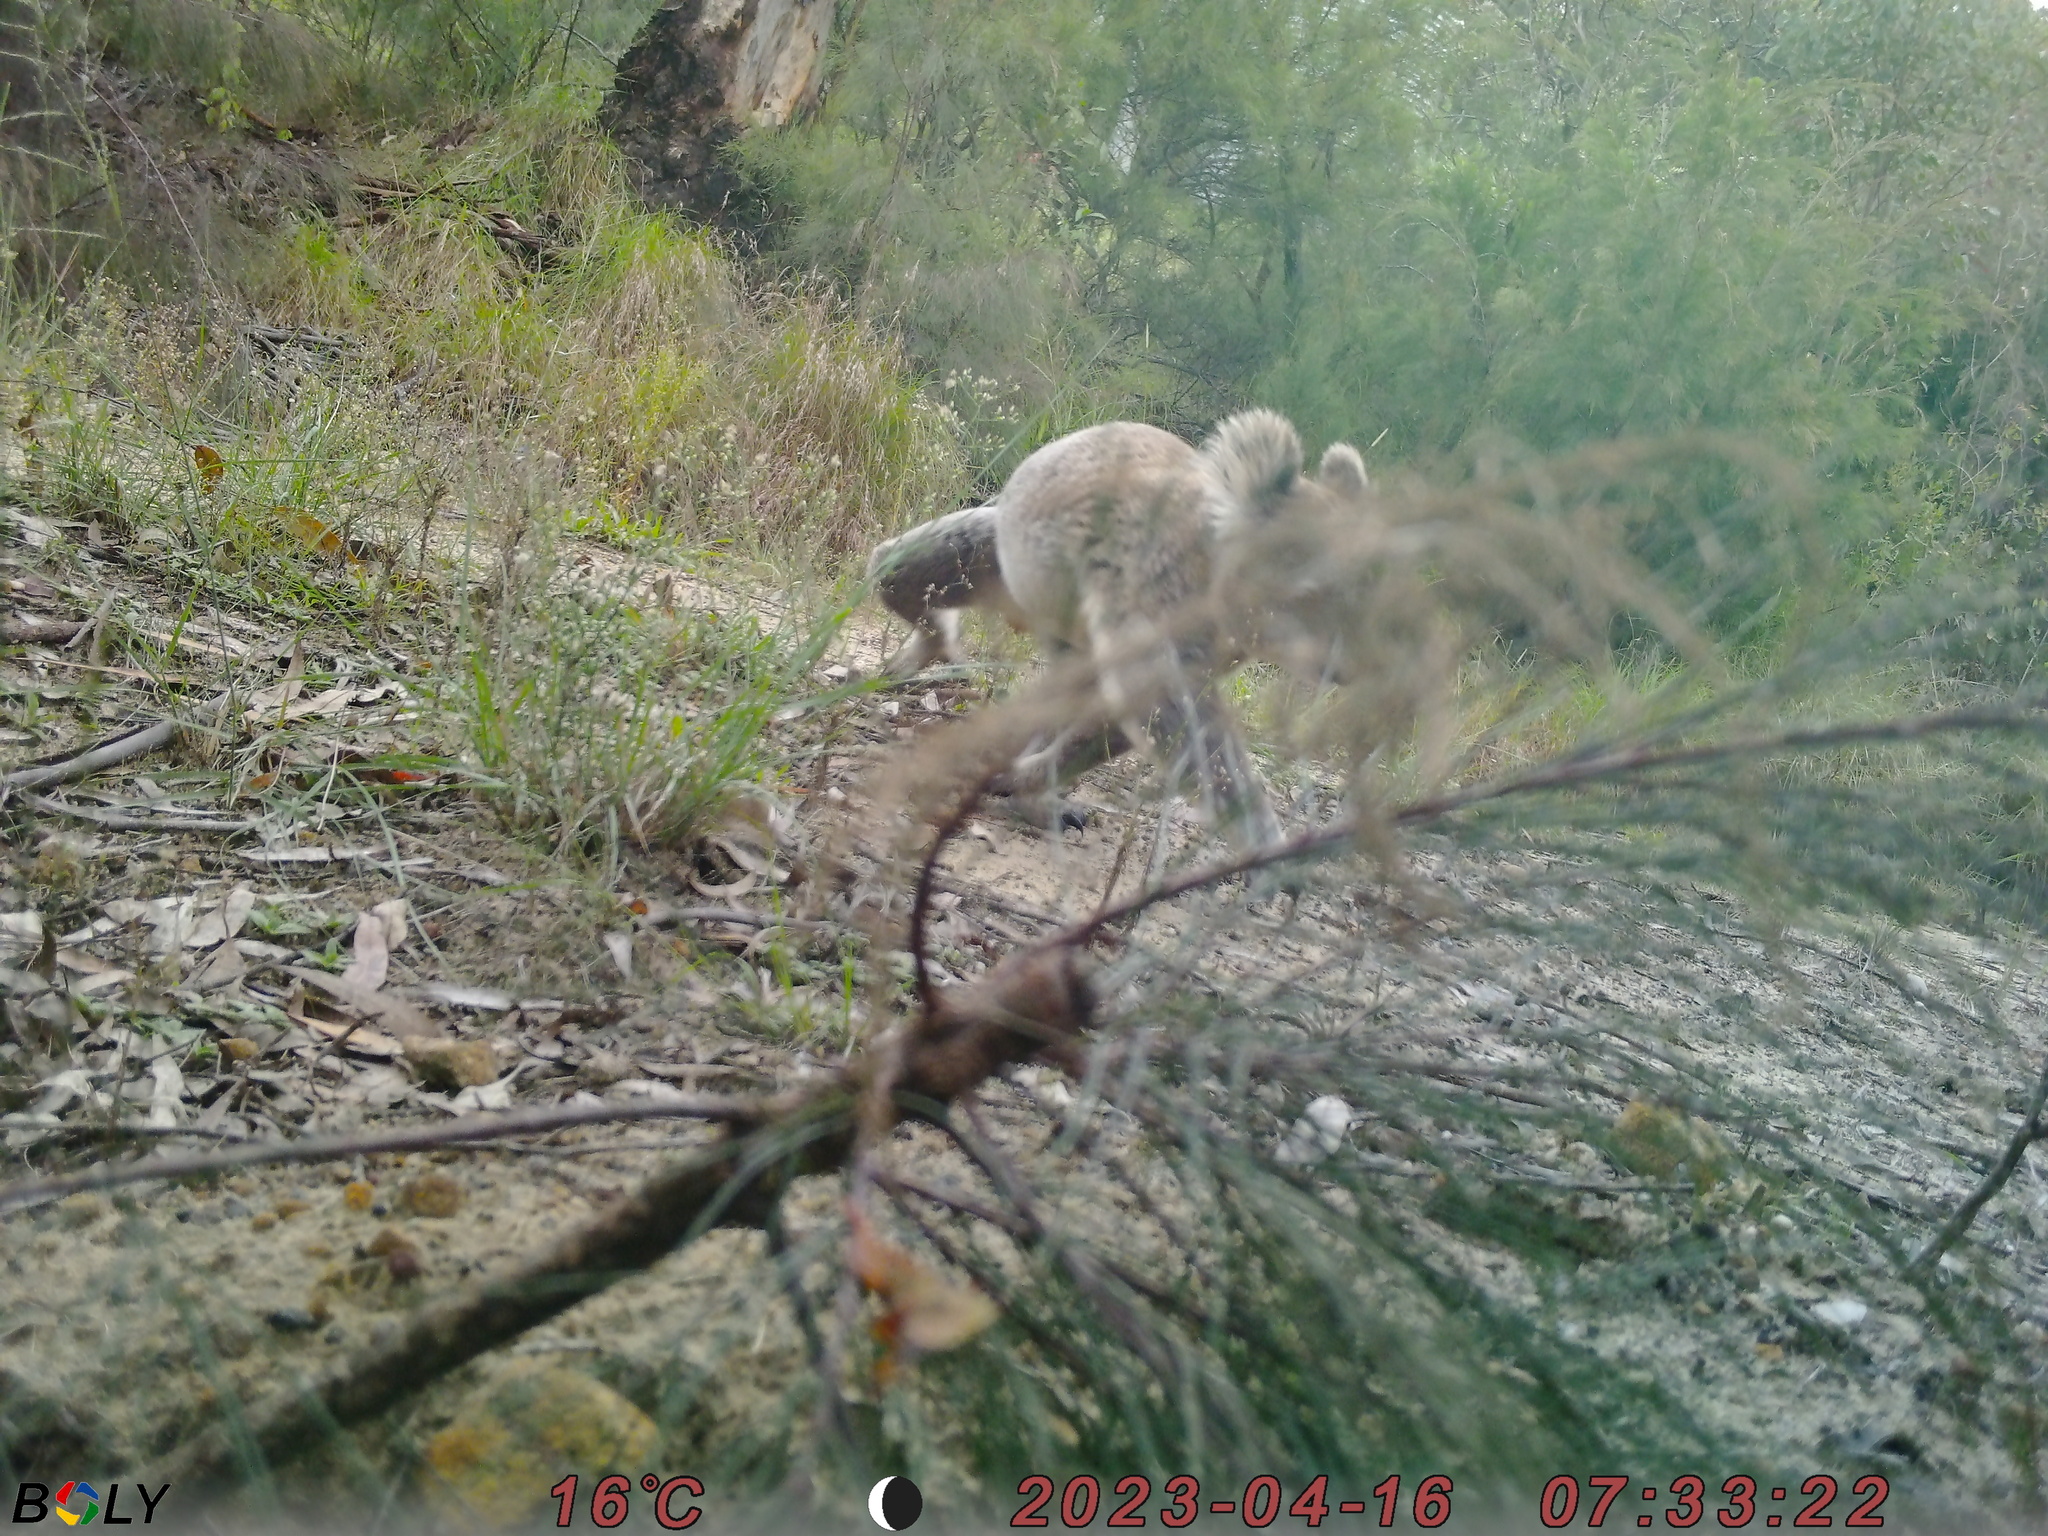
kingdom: Animalia
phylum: Chordata
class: Mammalia
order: Diprotodontia
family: Phascolarctidae
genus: Phascolarctos
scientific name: Phascolarctos cinereus
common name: Koala
